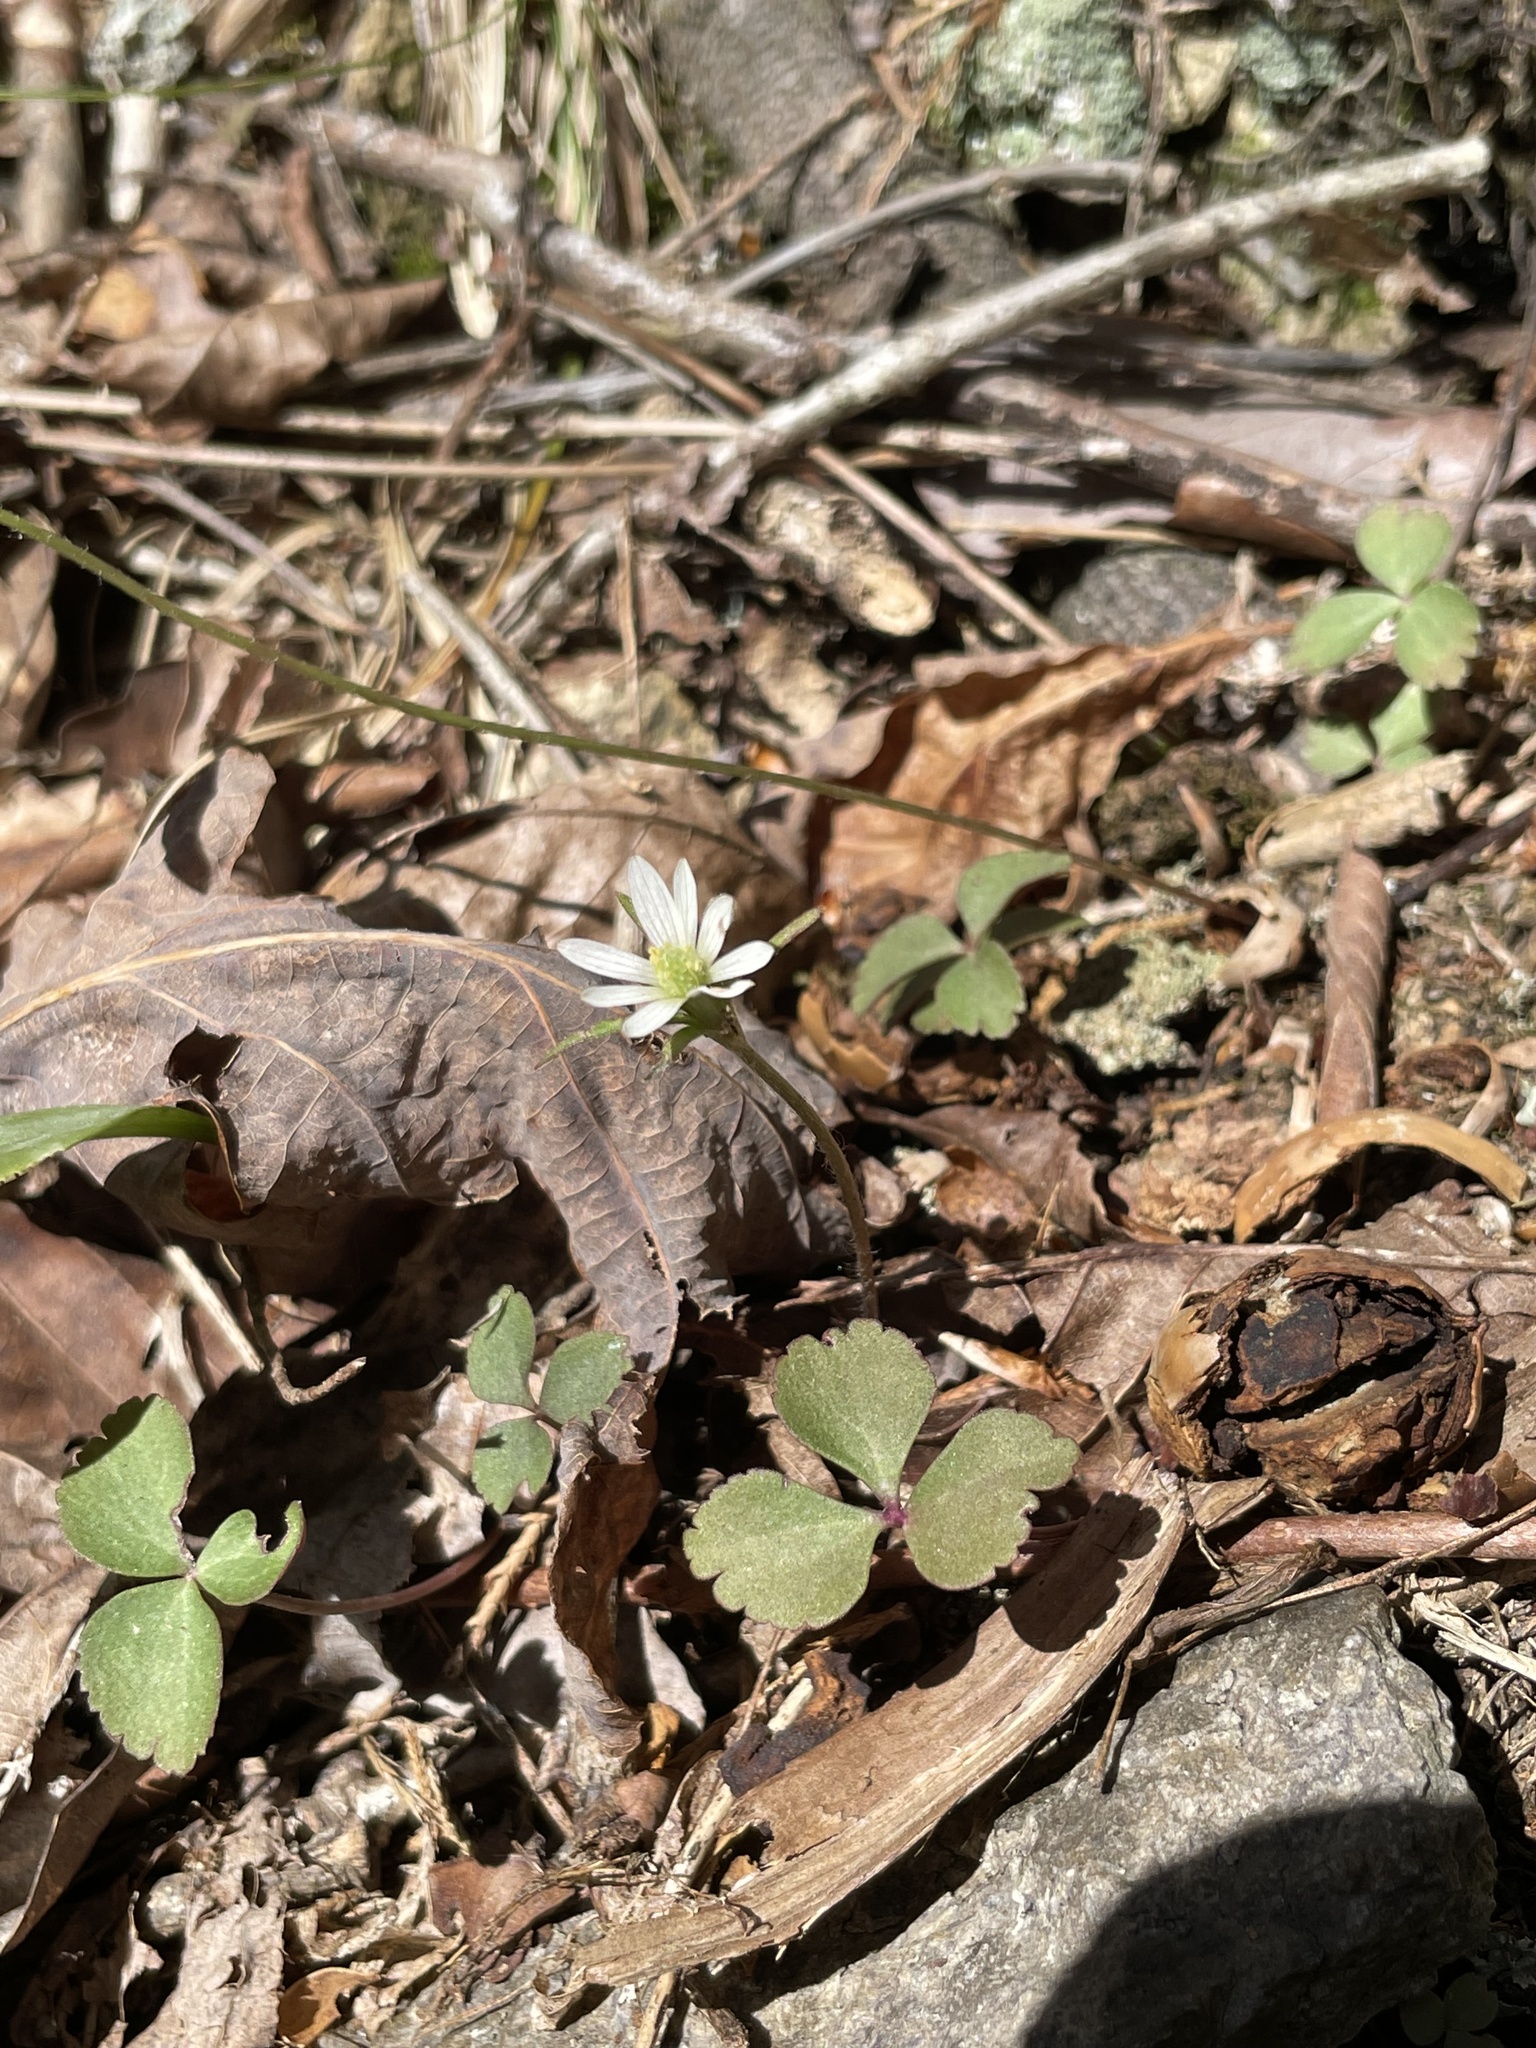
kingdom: Plantae
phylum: Tracheophyta
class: Magnoliopsida
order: Ranunculales
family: Ranunculaceae
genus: Anemone
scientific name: Anemone berlandieri
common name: Ten-petal anemone
